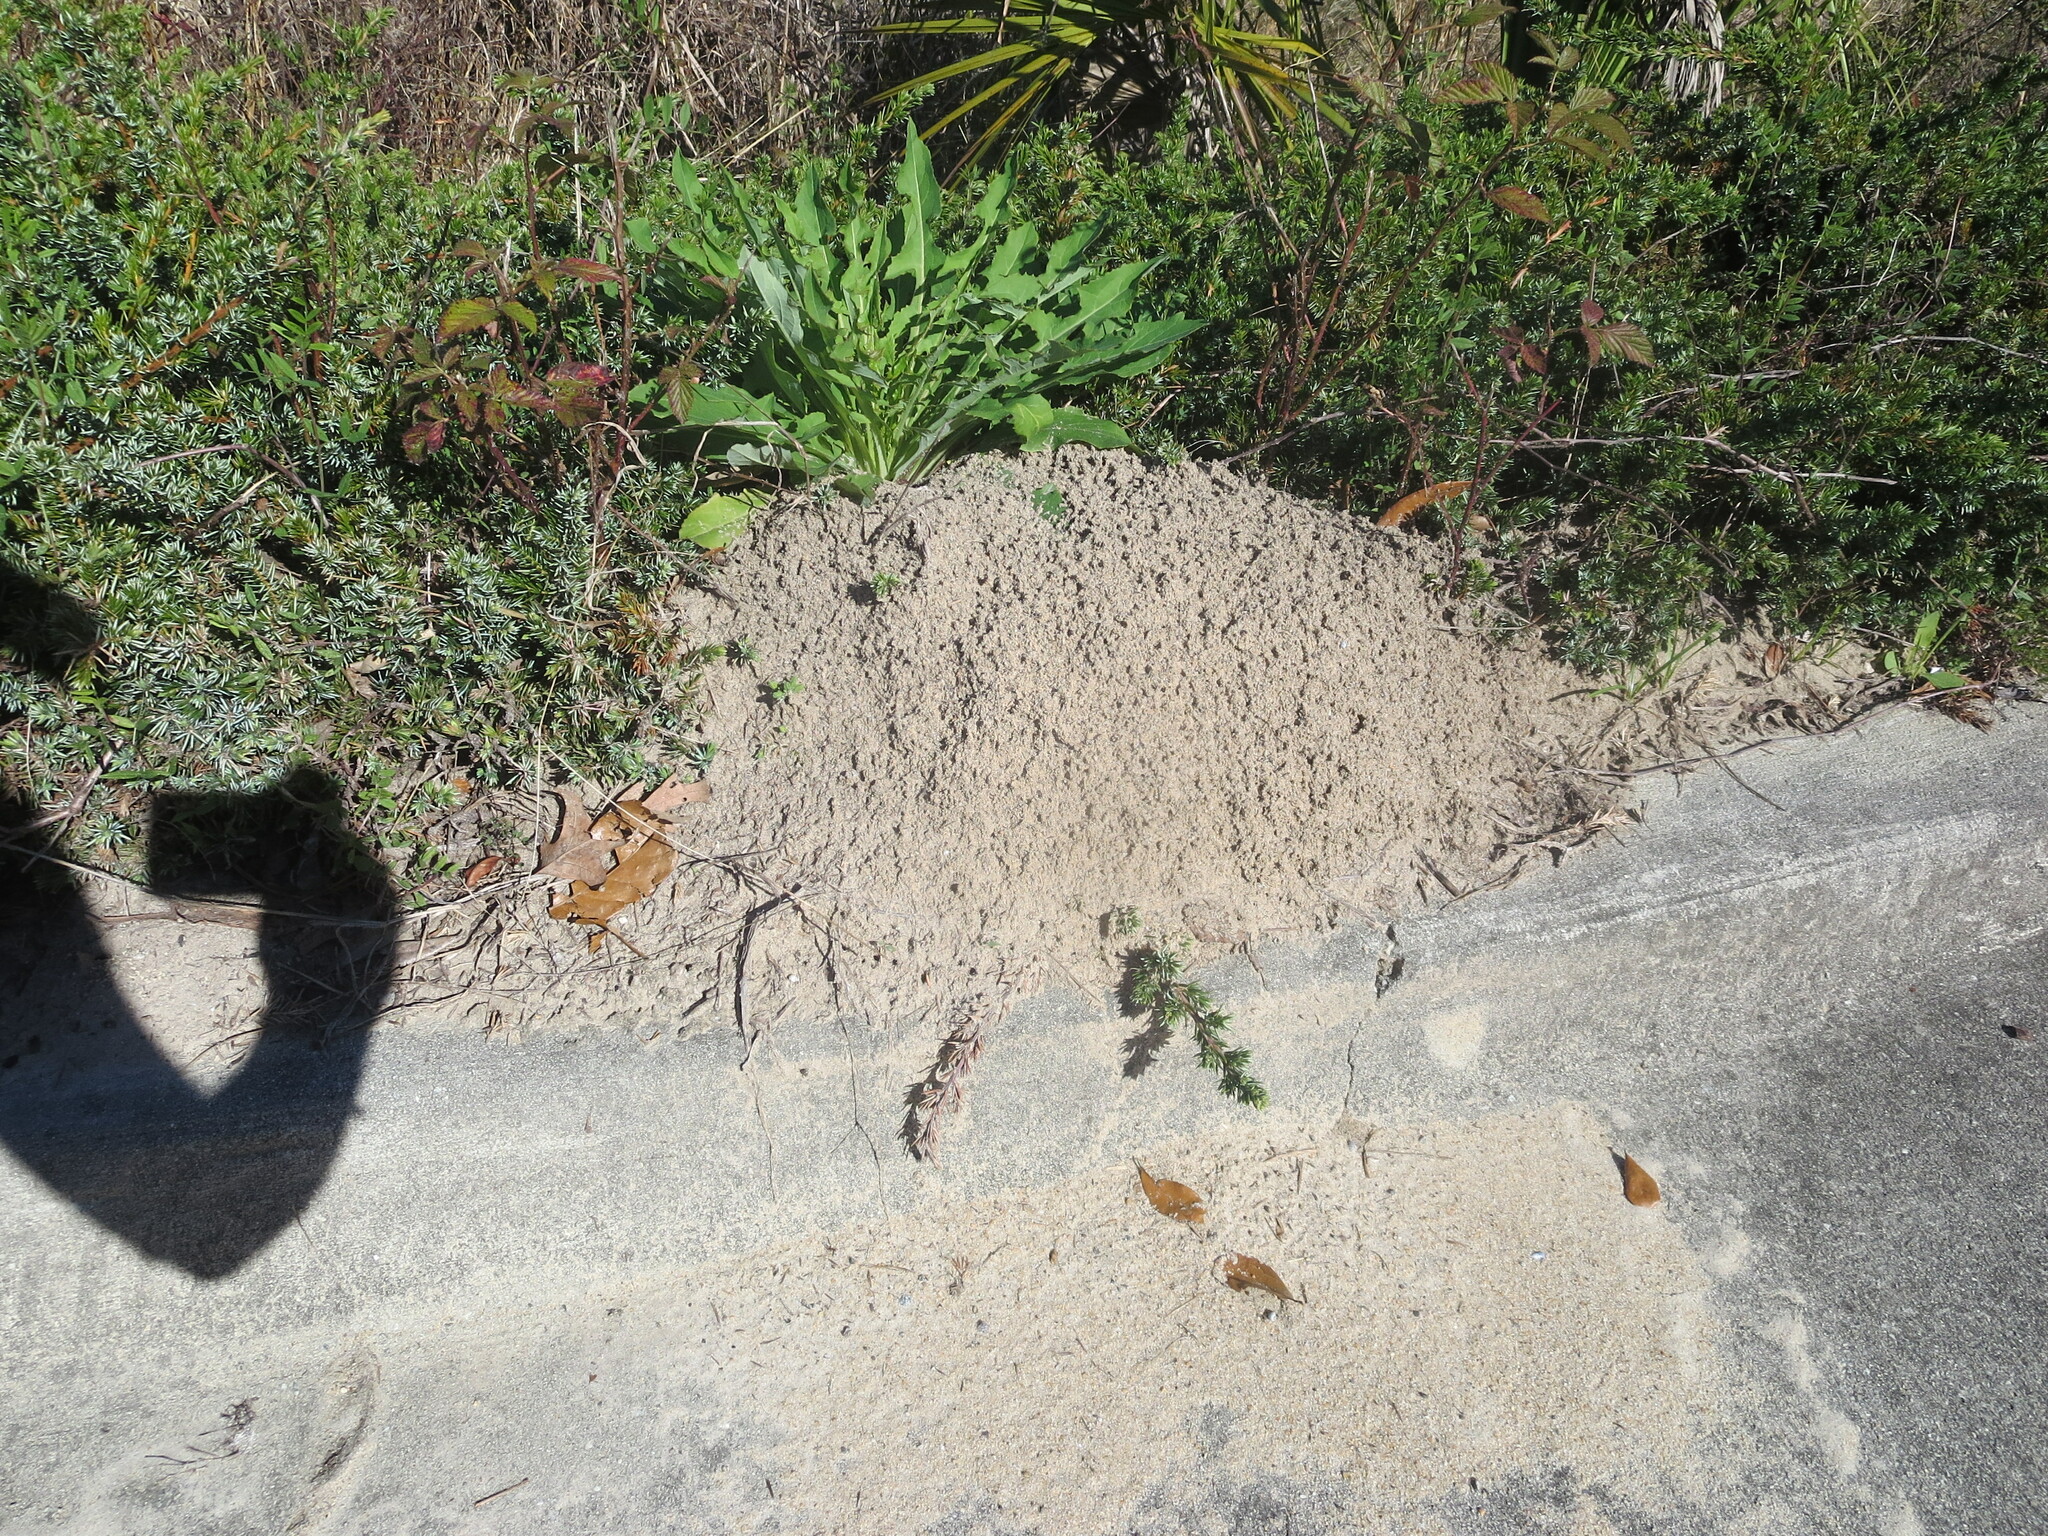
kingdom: Animalia
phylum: Arthropoda
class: Insecta
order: Hymenoptera
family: Formicidae
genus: Solenopsis
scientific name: Solenopsis invicta
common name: Red imported fire ant
